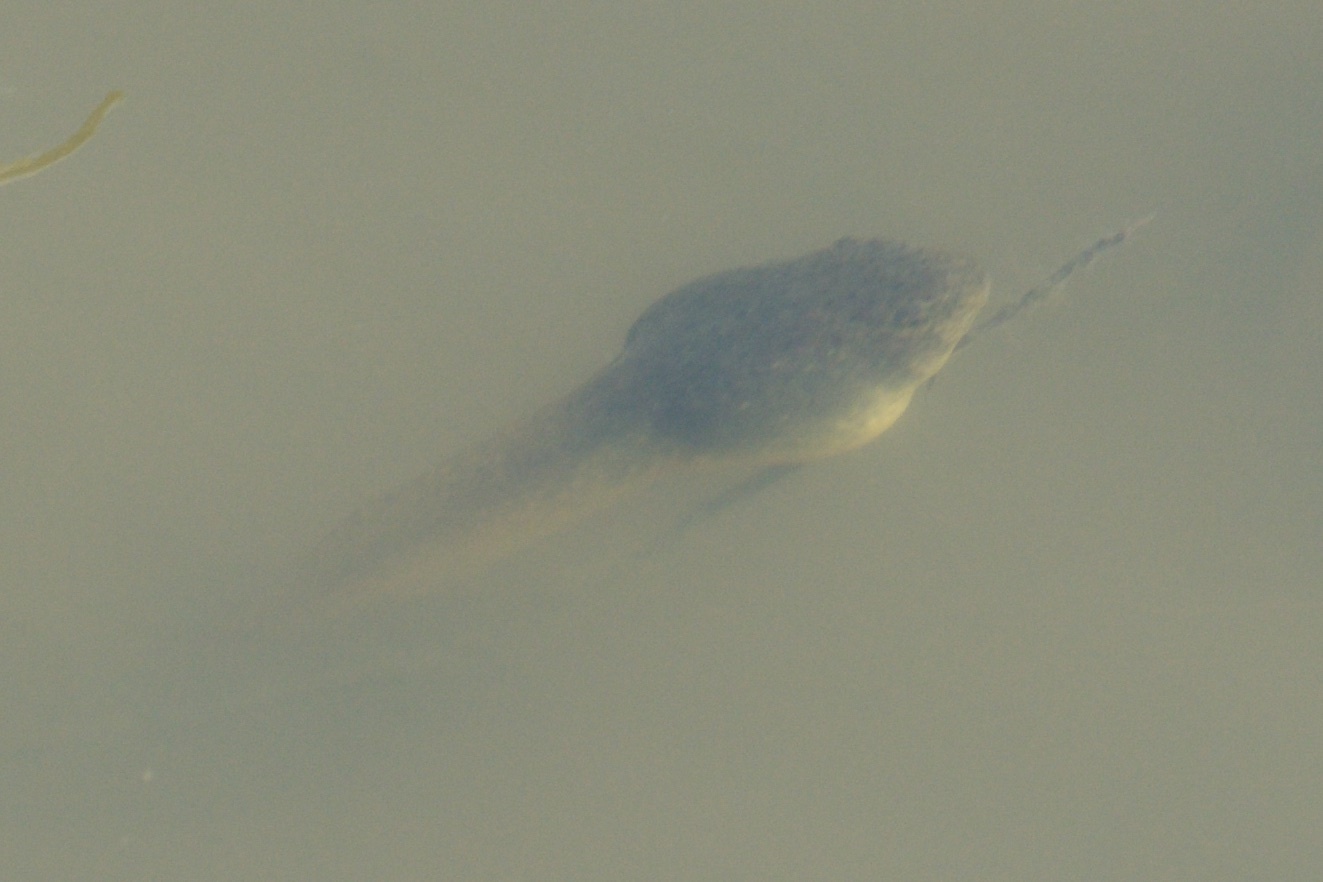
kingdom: Animalia
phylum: Chordata
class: Amphibia
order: Anura
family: Ranidae
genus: Lithobates
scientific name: Lithobates catesbeianus
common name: American bullfrog
